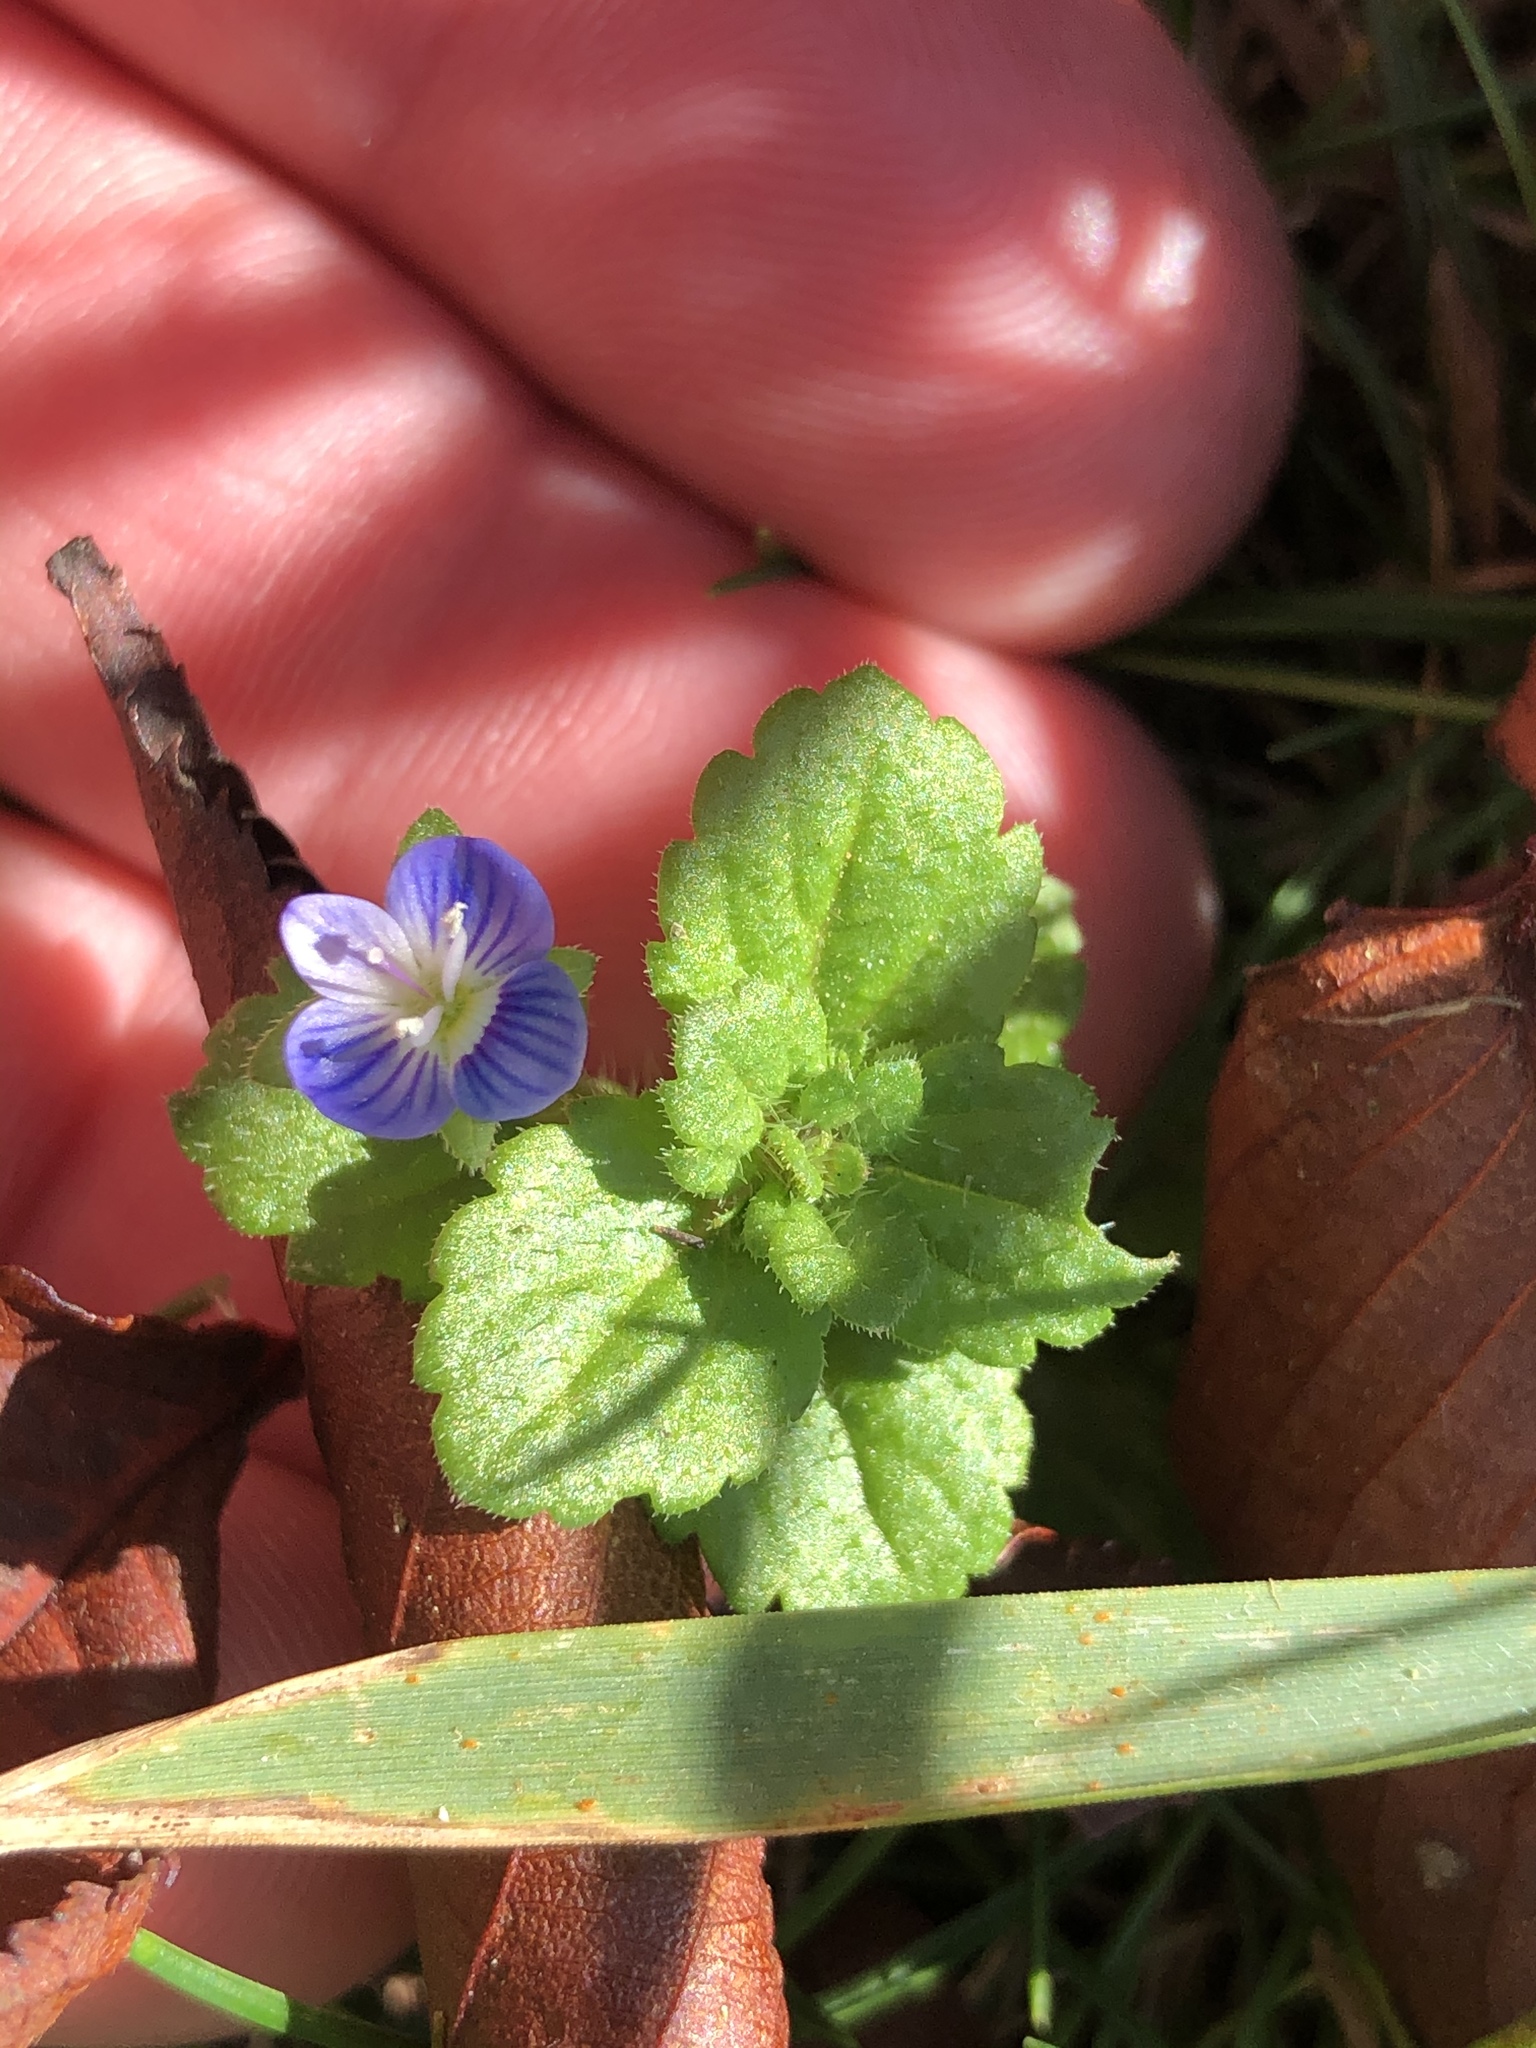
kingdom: Plantae
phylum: Tracheophyta
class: Magnoliopsida
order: Lamiales
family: Plantaginaceae
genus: Veronica
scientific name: Veronica persica
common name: Common field-speedwell
